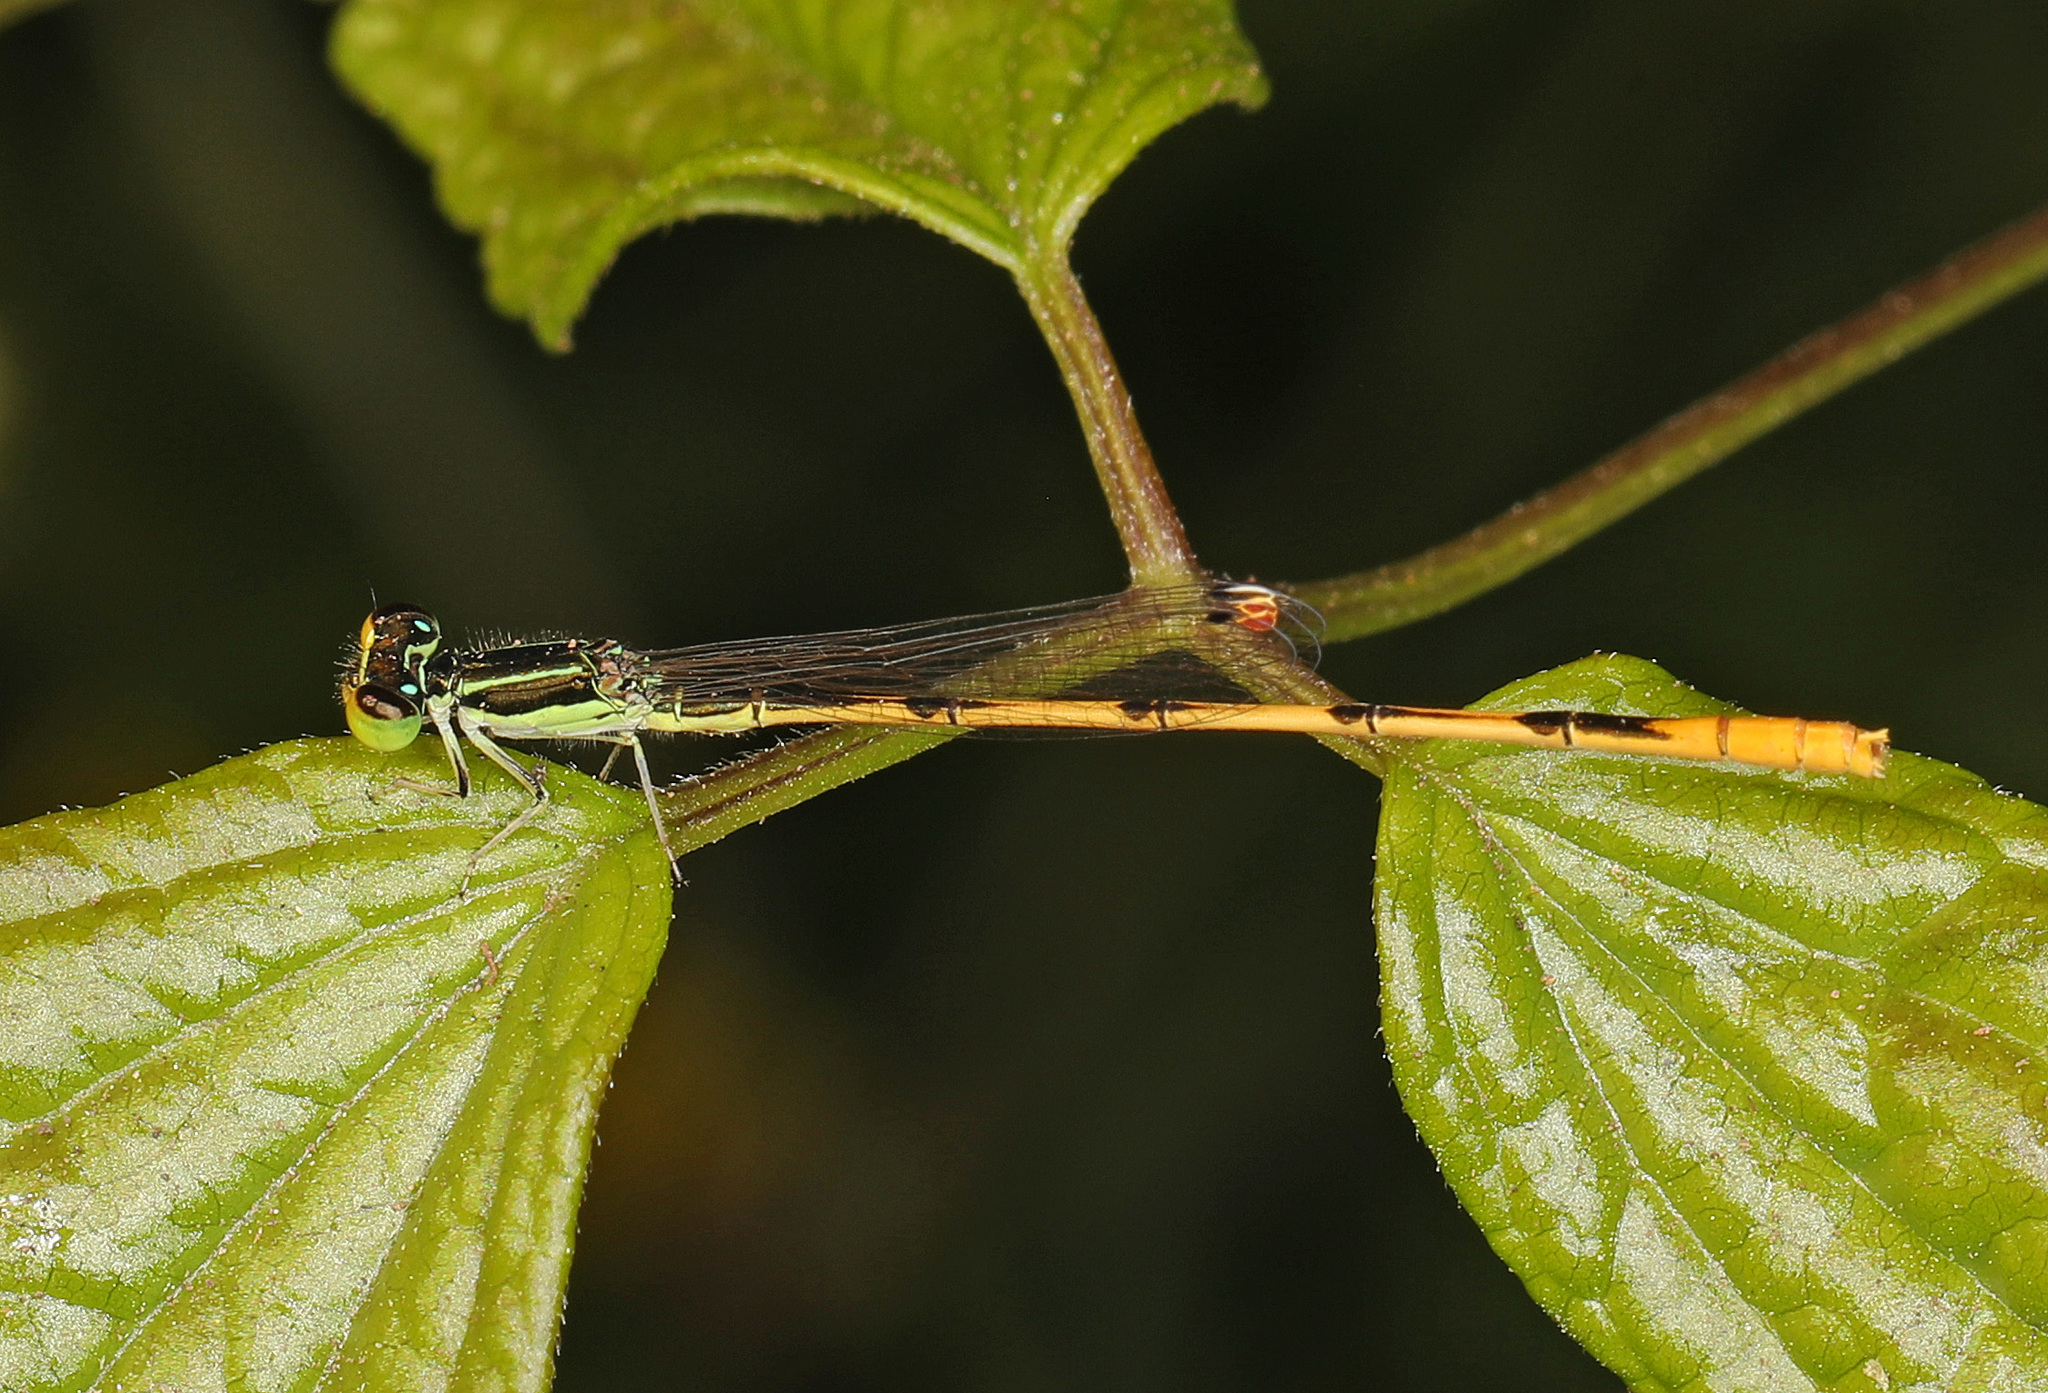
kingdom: Animalia
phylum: Arthropoda
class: Insecta
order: Odonata
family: Coenagrionidae
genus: Ischnura
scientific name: Ischnura hastata
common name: Citrine forktail
